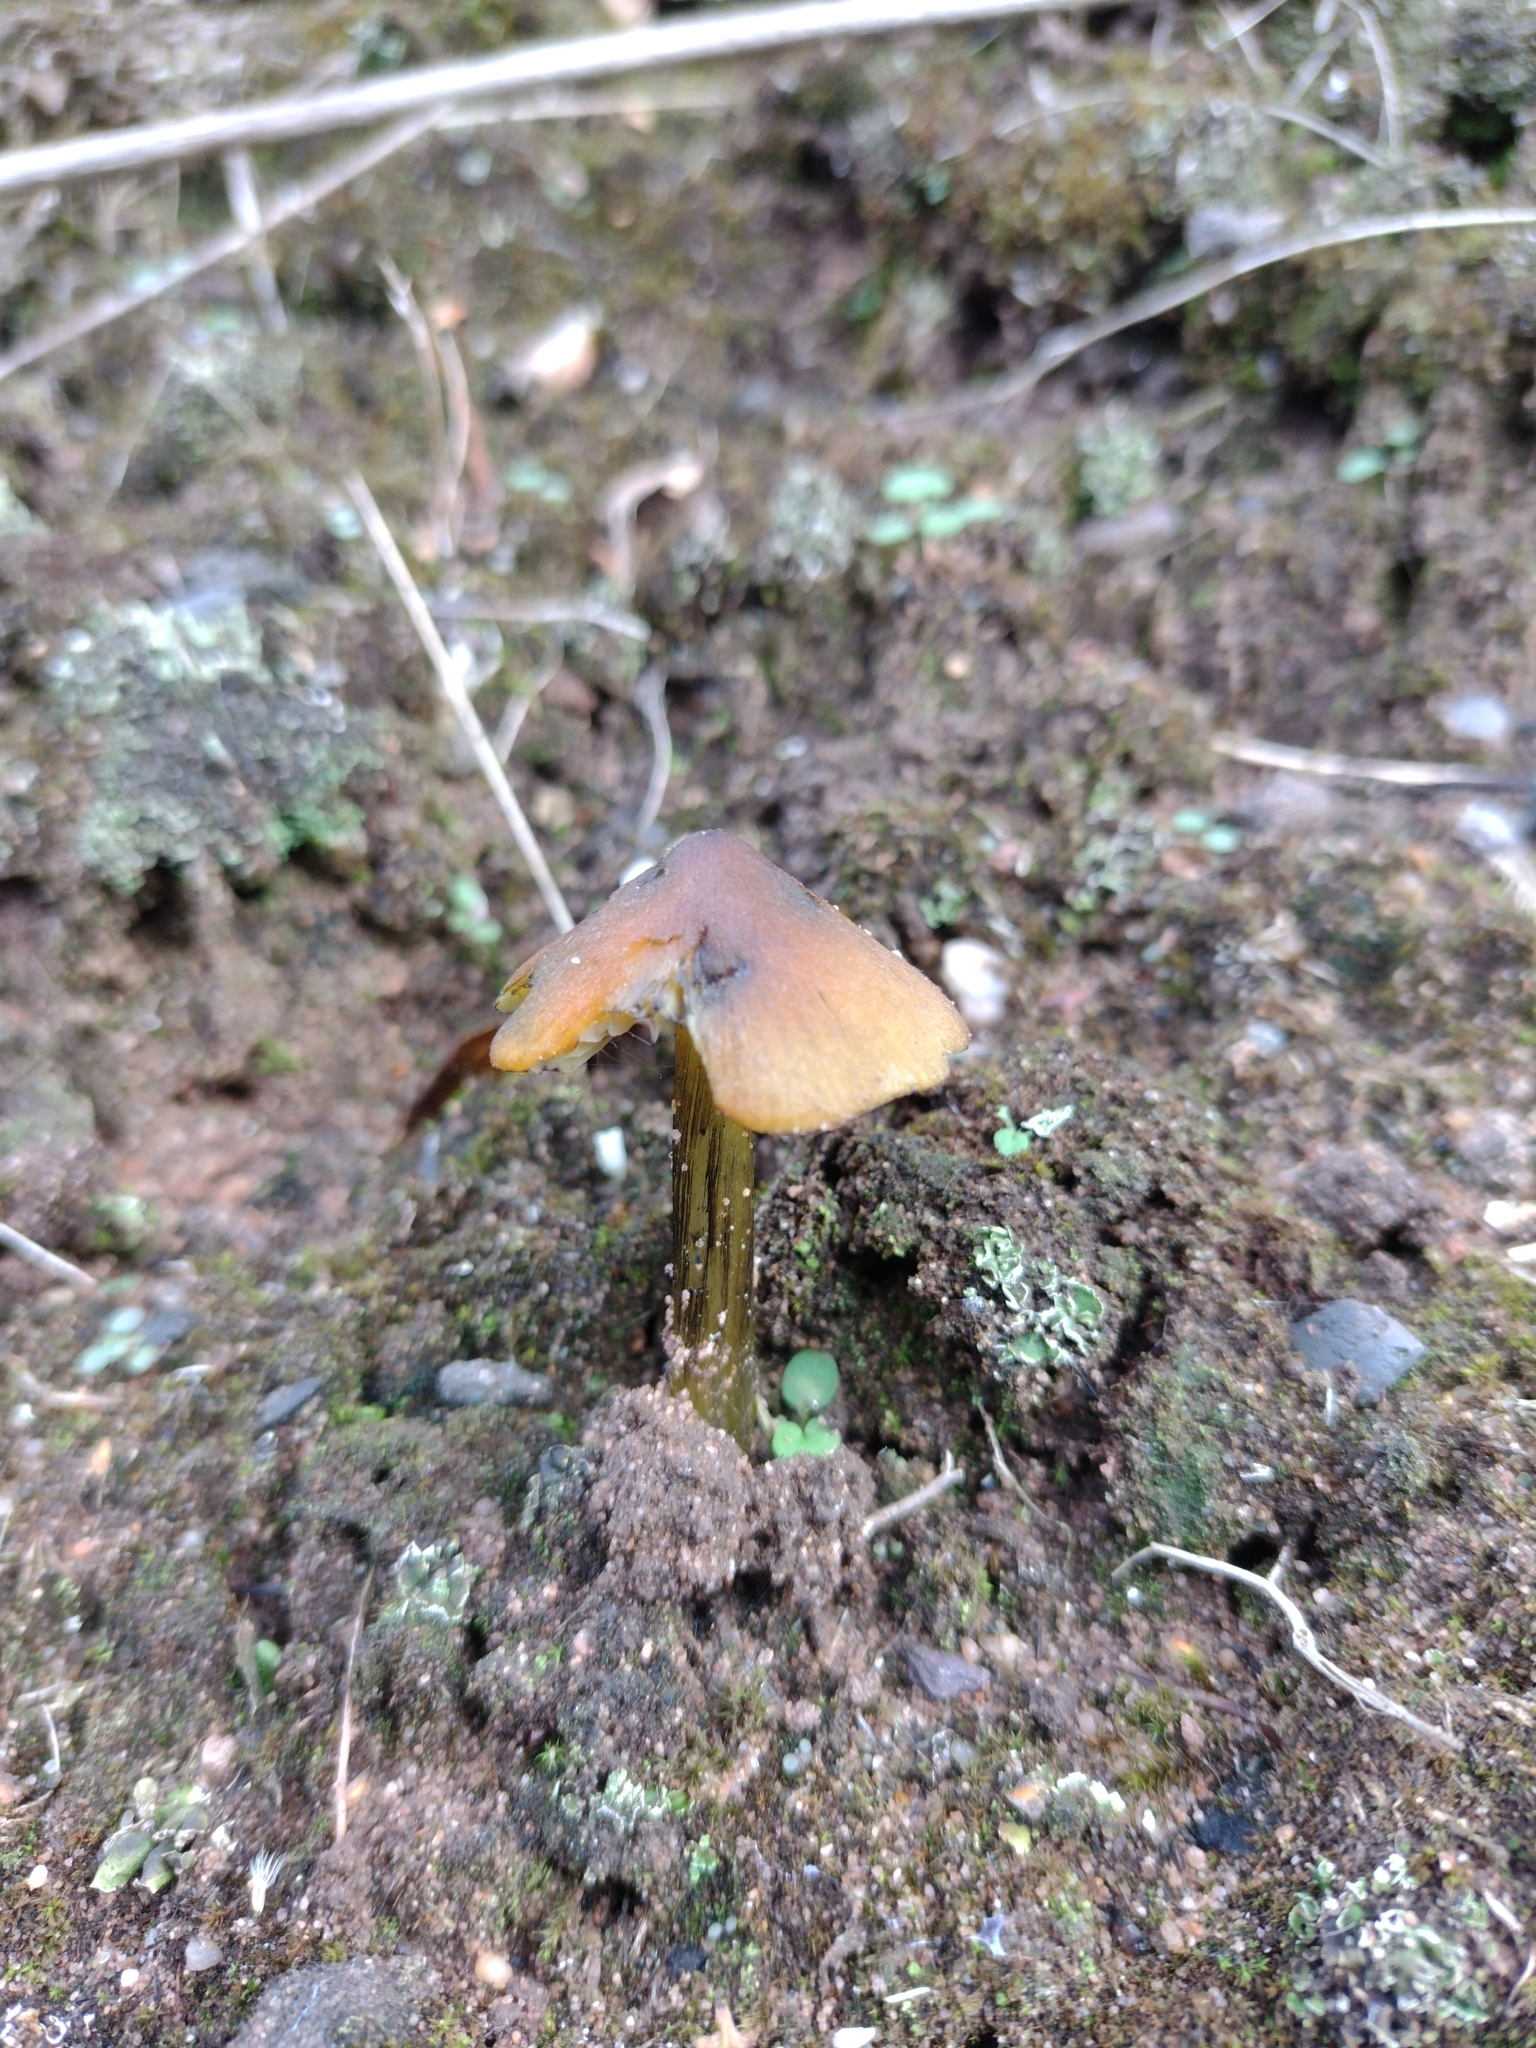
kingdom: Fungi
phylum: Basidiomycota
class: Agaricomycetes
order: Agaricales
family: Hygrophoraceae
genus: Hygrocybe
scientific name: Hygrocybe conica
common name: Blackening wax-cap
